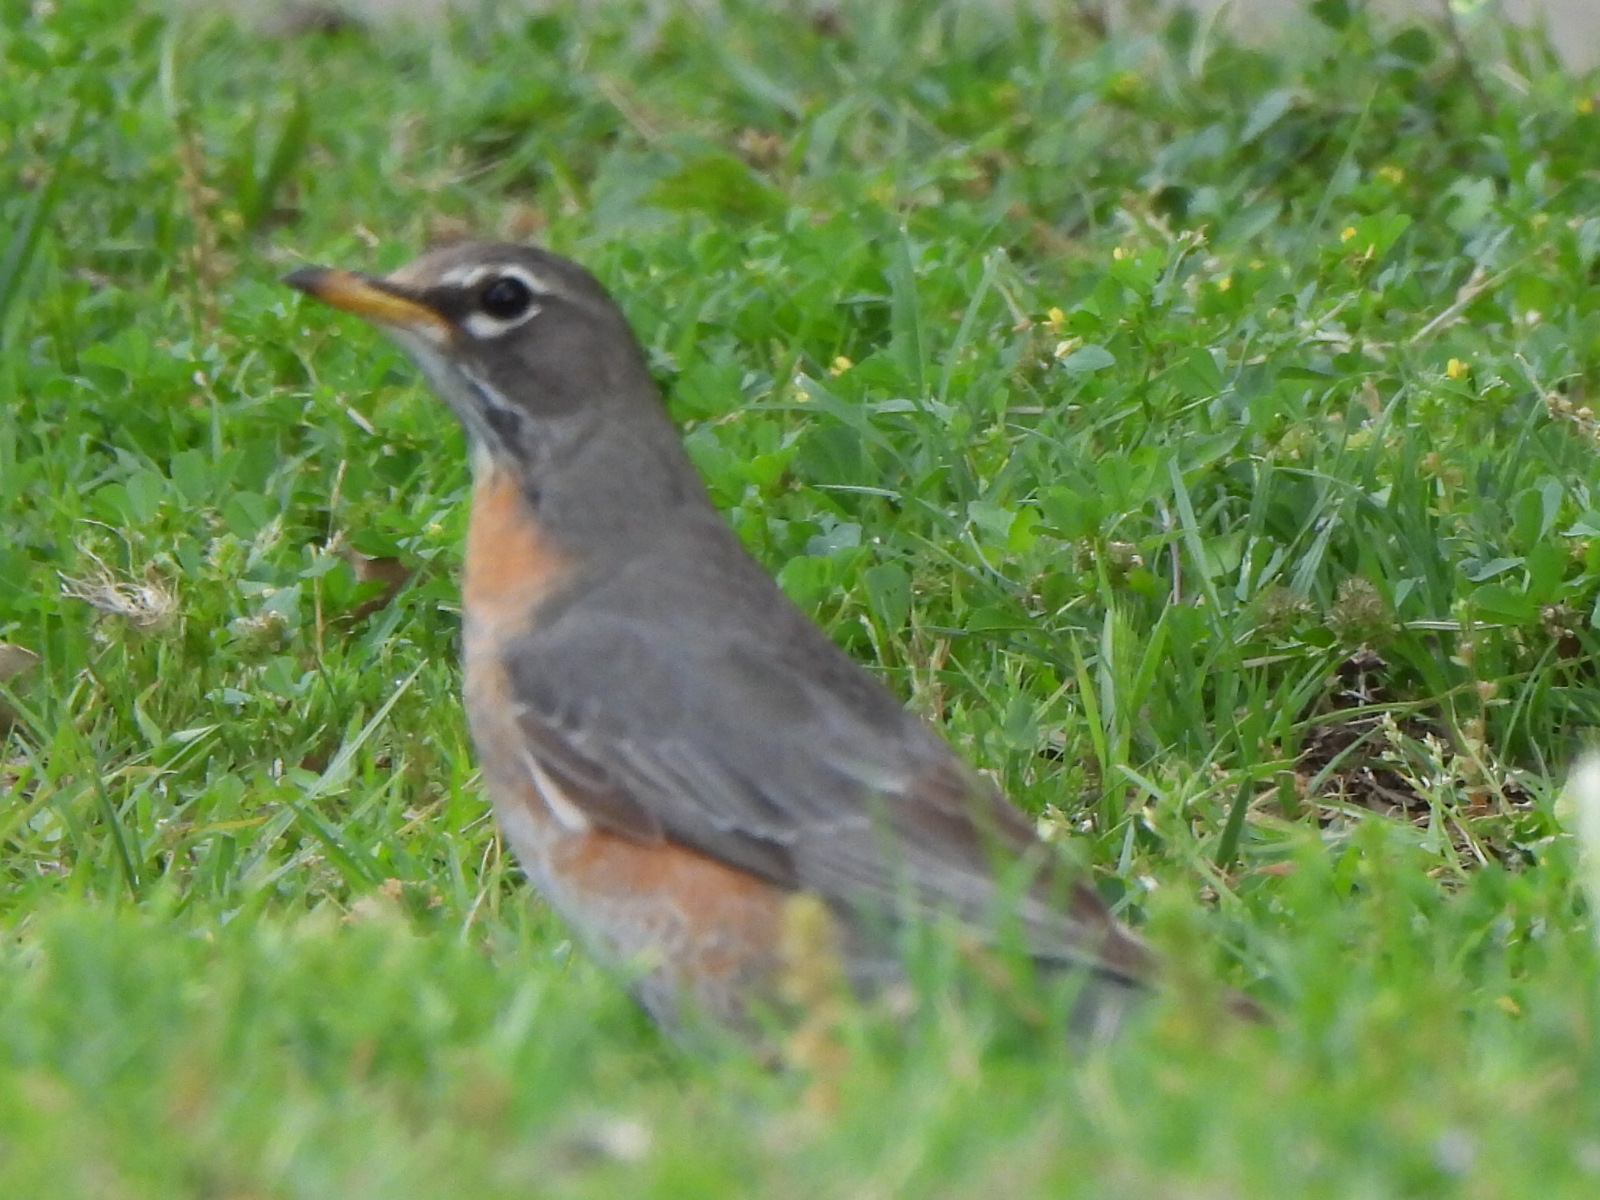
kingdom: Animalia
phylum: Chordata
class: Aves
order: Passeriformes
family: Turdidae
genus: Turdus
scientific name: Turdus migratorius
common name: American robin
